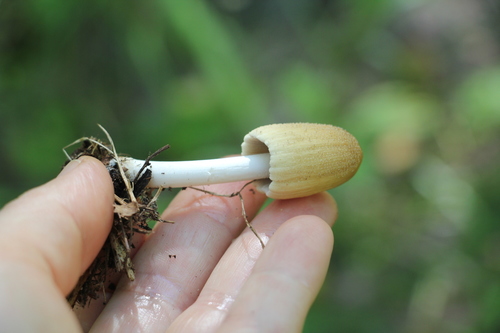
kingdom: Fungi
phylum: Basidiomycota
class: Agaricomycetes
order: Agaricales
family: Psathyrellaceae
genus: Coprinellus
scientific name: Coprinellus domesticus
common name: Firerug inkcap
